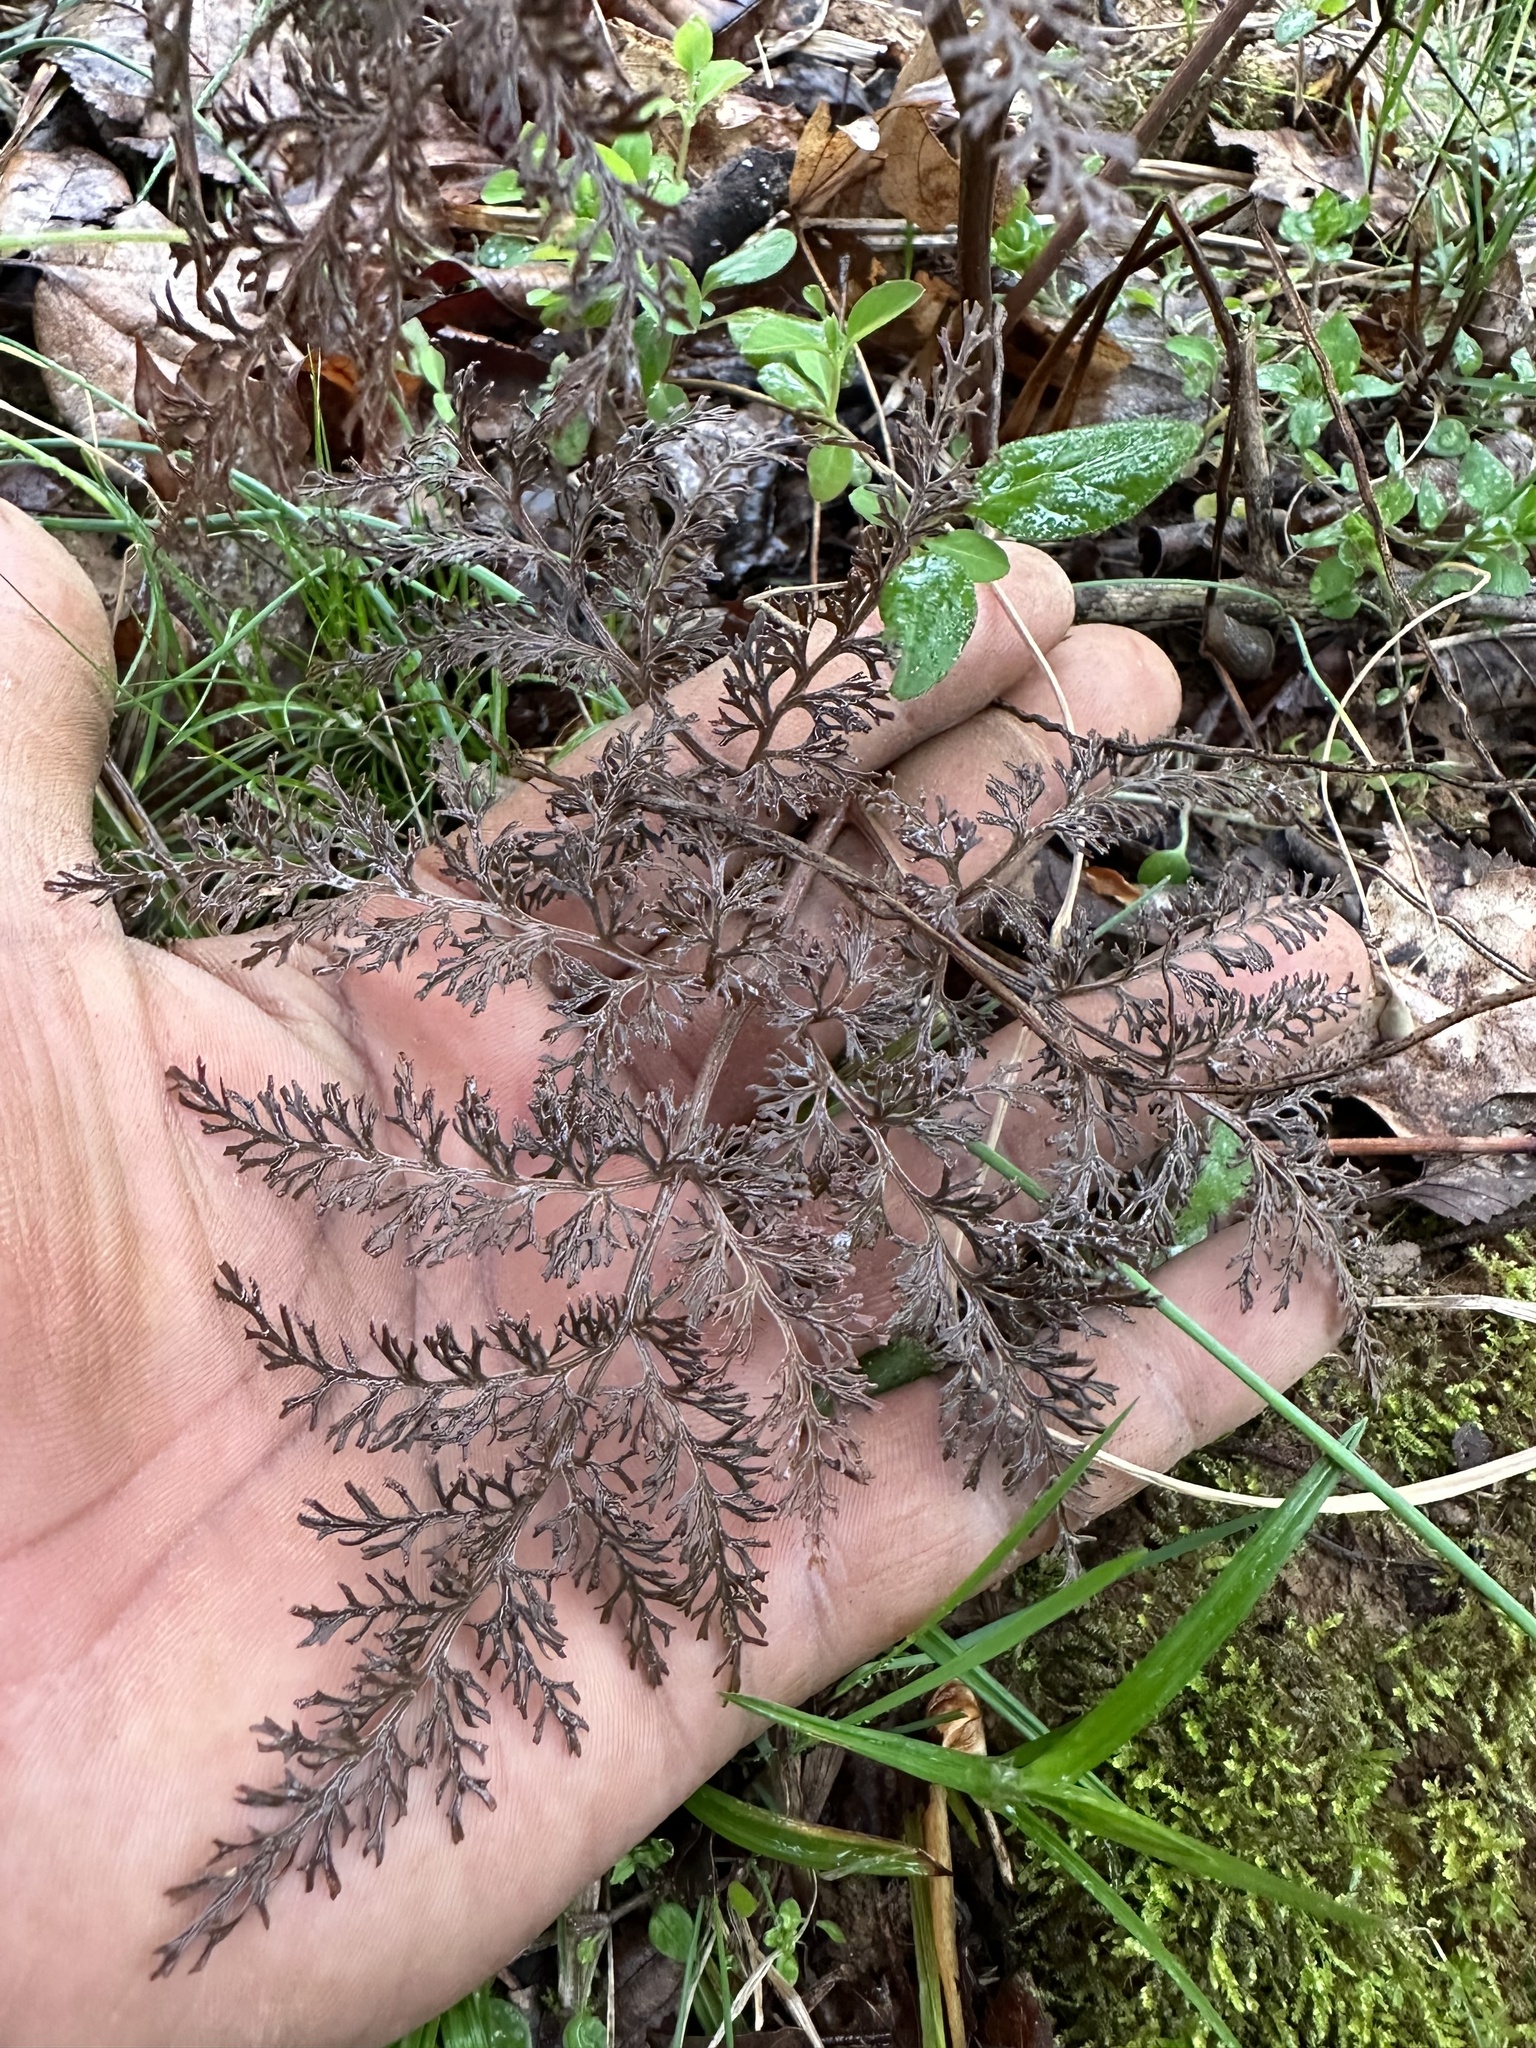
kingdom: Plantae
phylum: Tracheophyta
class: Polypodiopsida
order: Ophioglossales
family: Ophioglossaceae
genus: Sceptridium
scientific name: Sceptridium dissectum
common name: Cut-leaved grapefern
